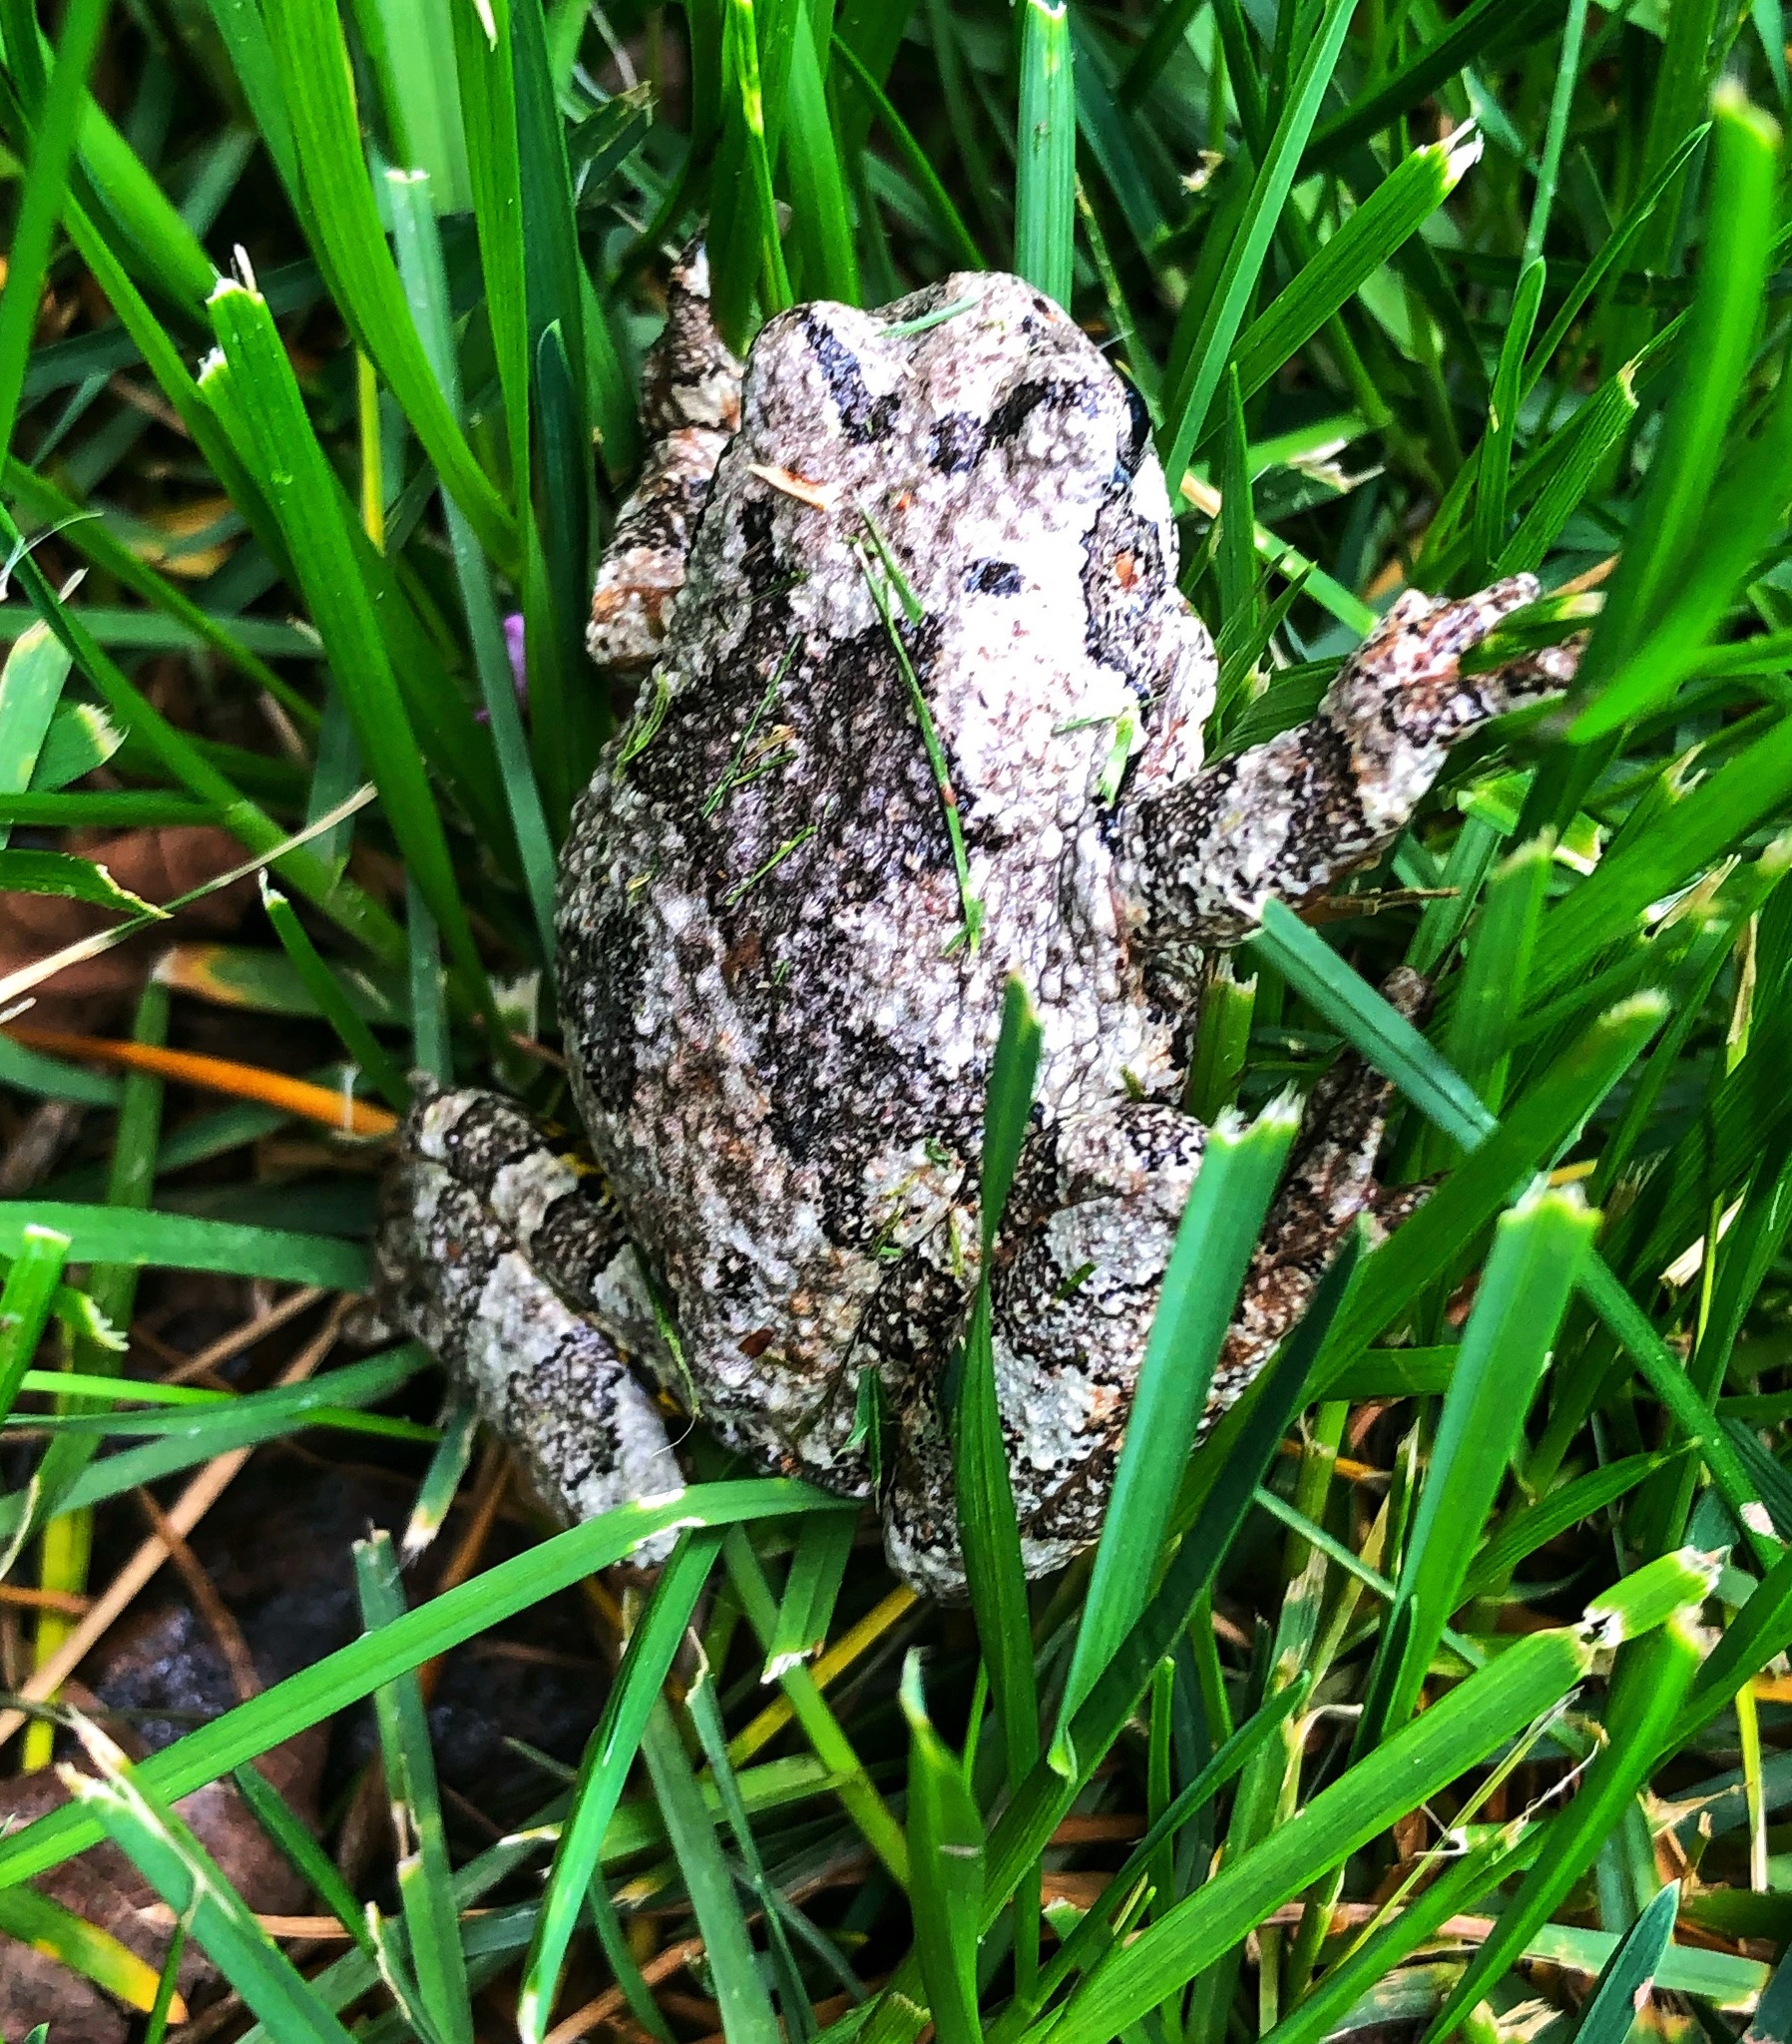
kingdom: Animalia
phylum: Chordata
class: Amphibia
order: Anura
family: Hylidae
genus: Dryophytes
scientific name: Dryophytes versicolor
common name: Gray treefrog
